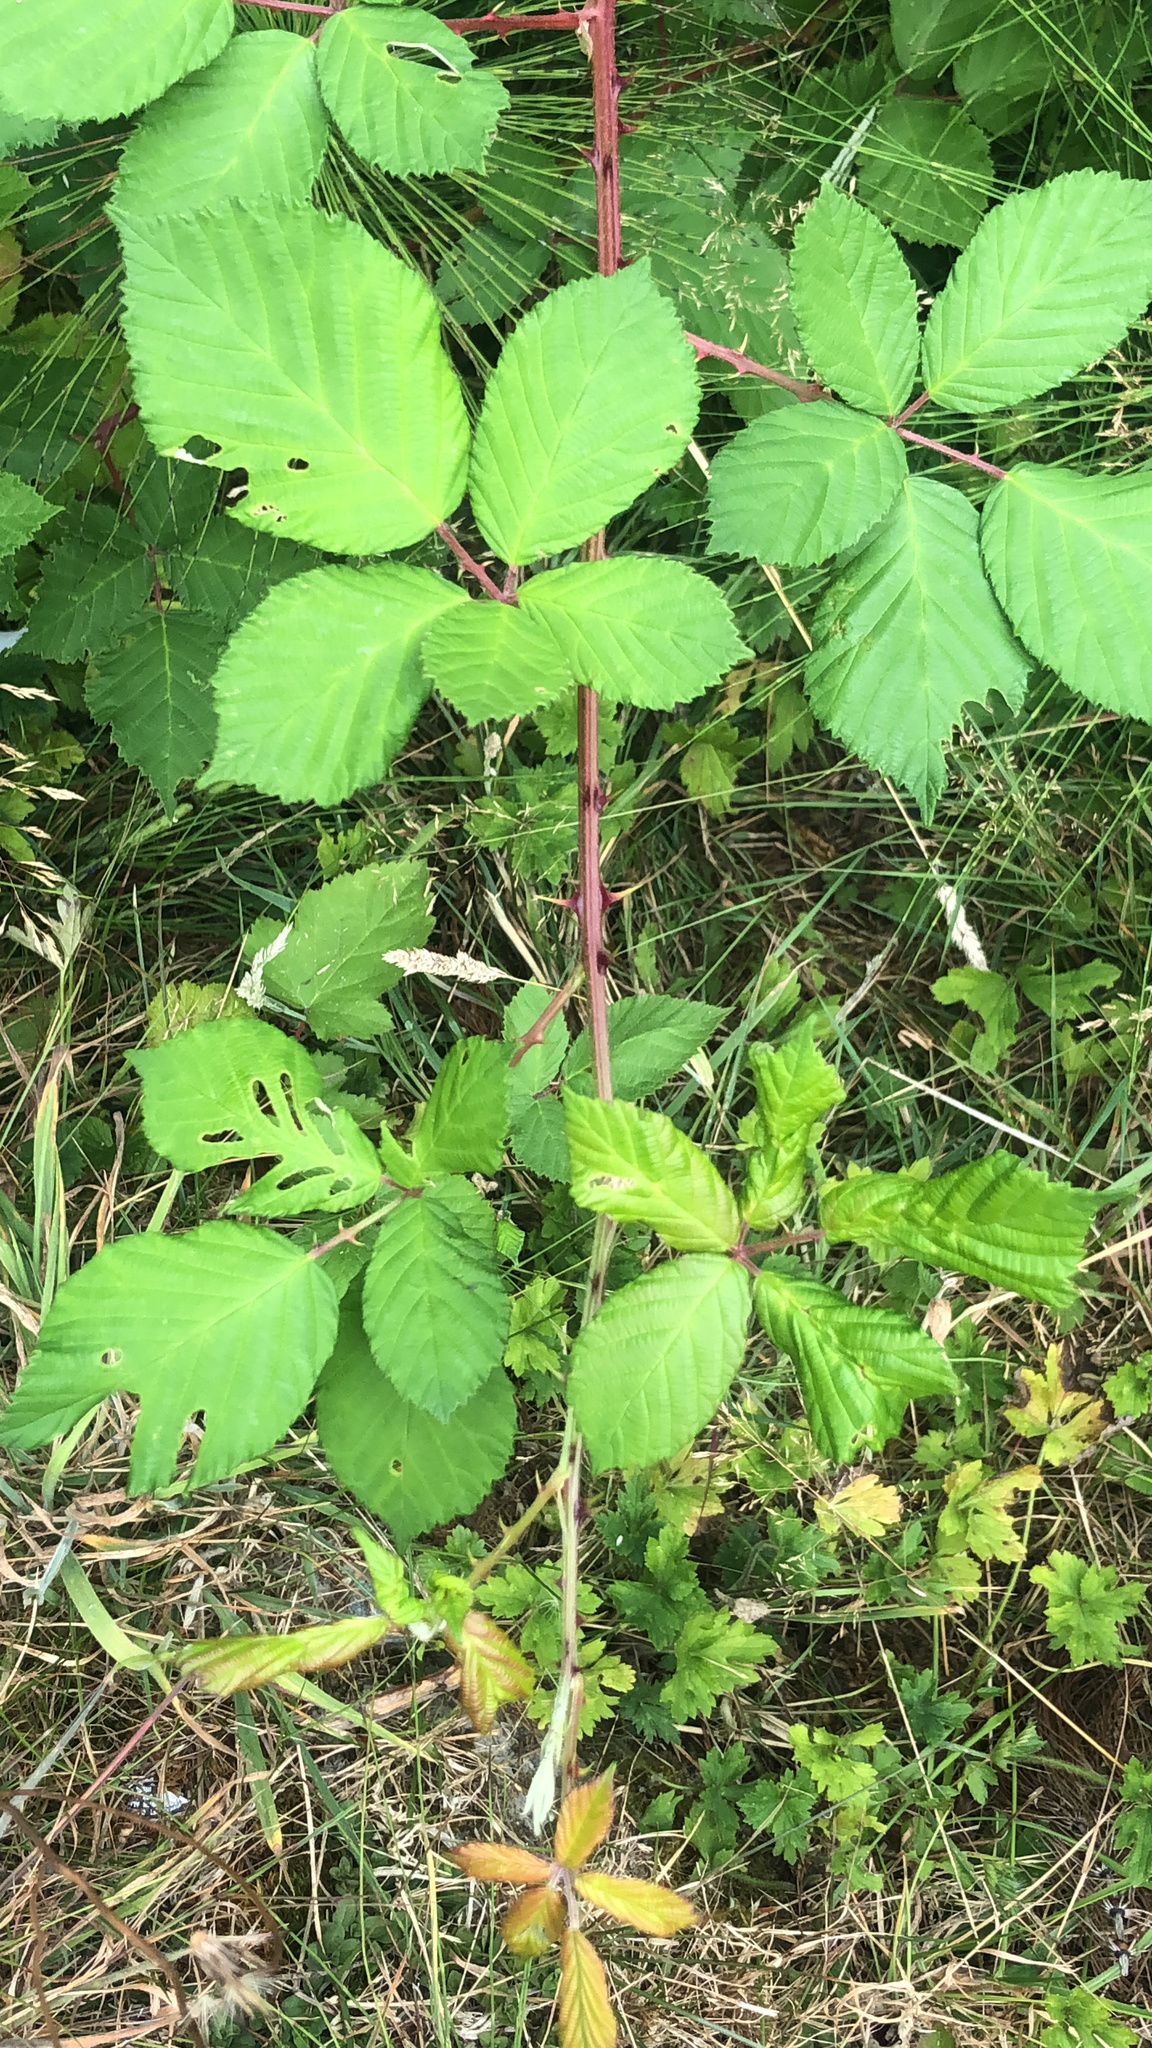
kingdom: Plantae
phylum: Tracheophyta
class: Magnoliopsida
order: Rosales
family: Rosaceae
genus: Rubus
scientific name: Rubus armeniacus
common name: Himalayan blackberry
